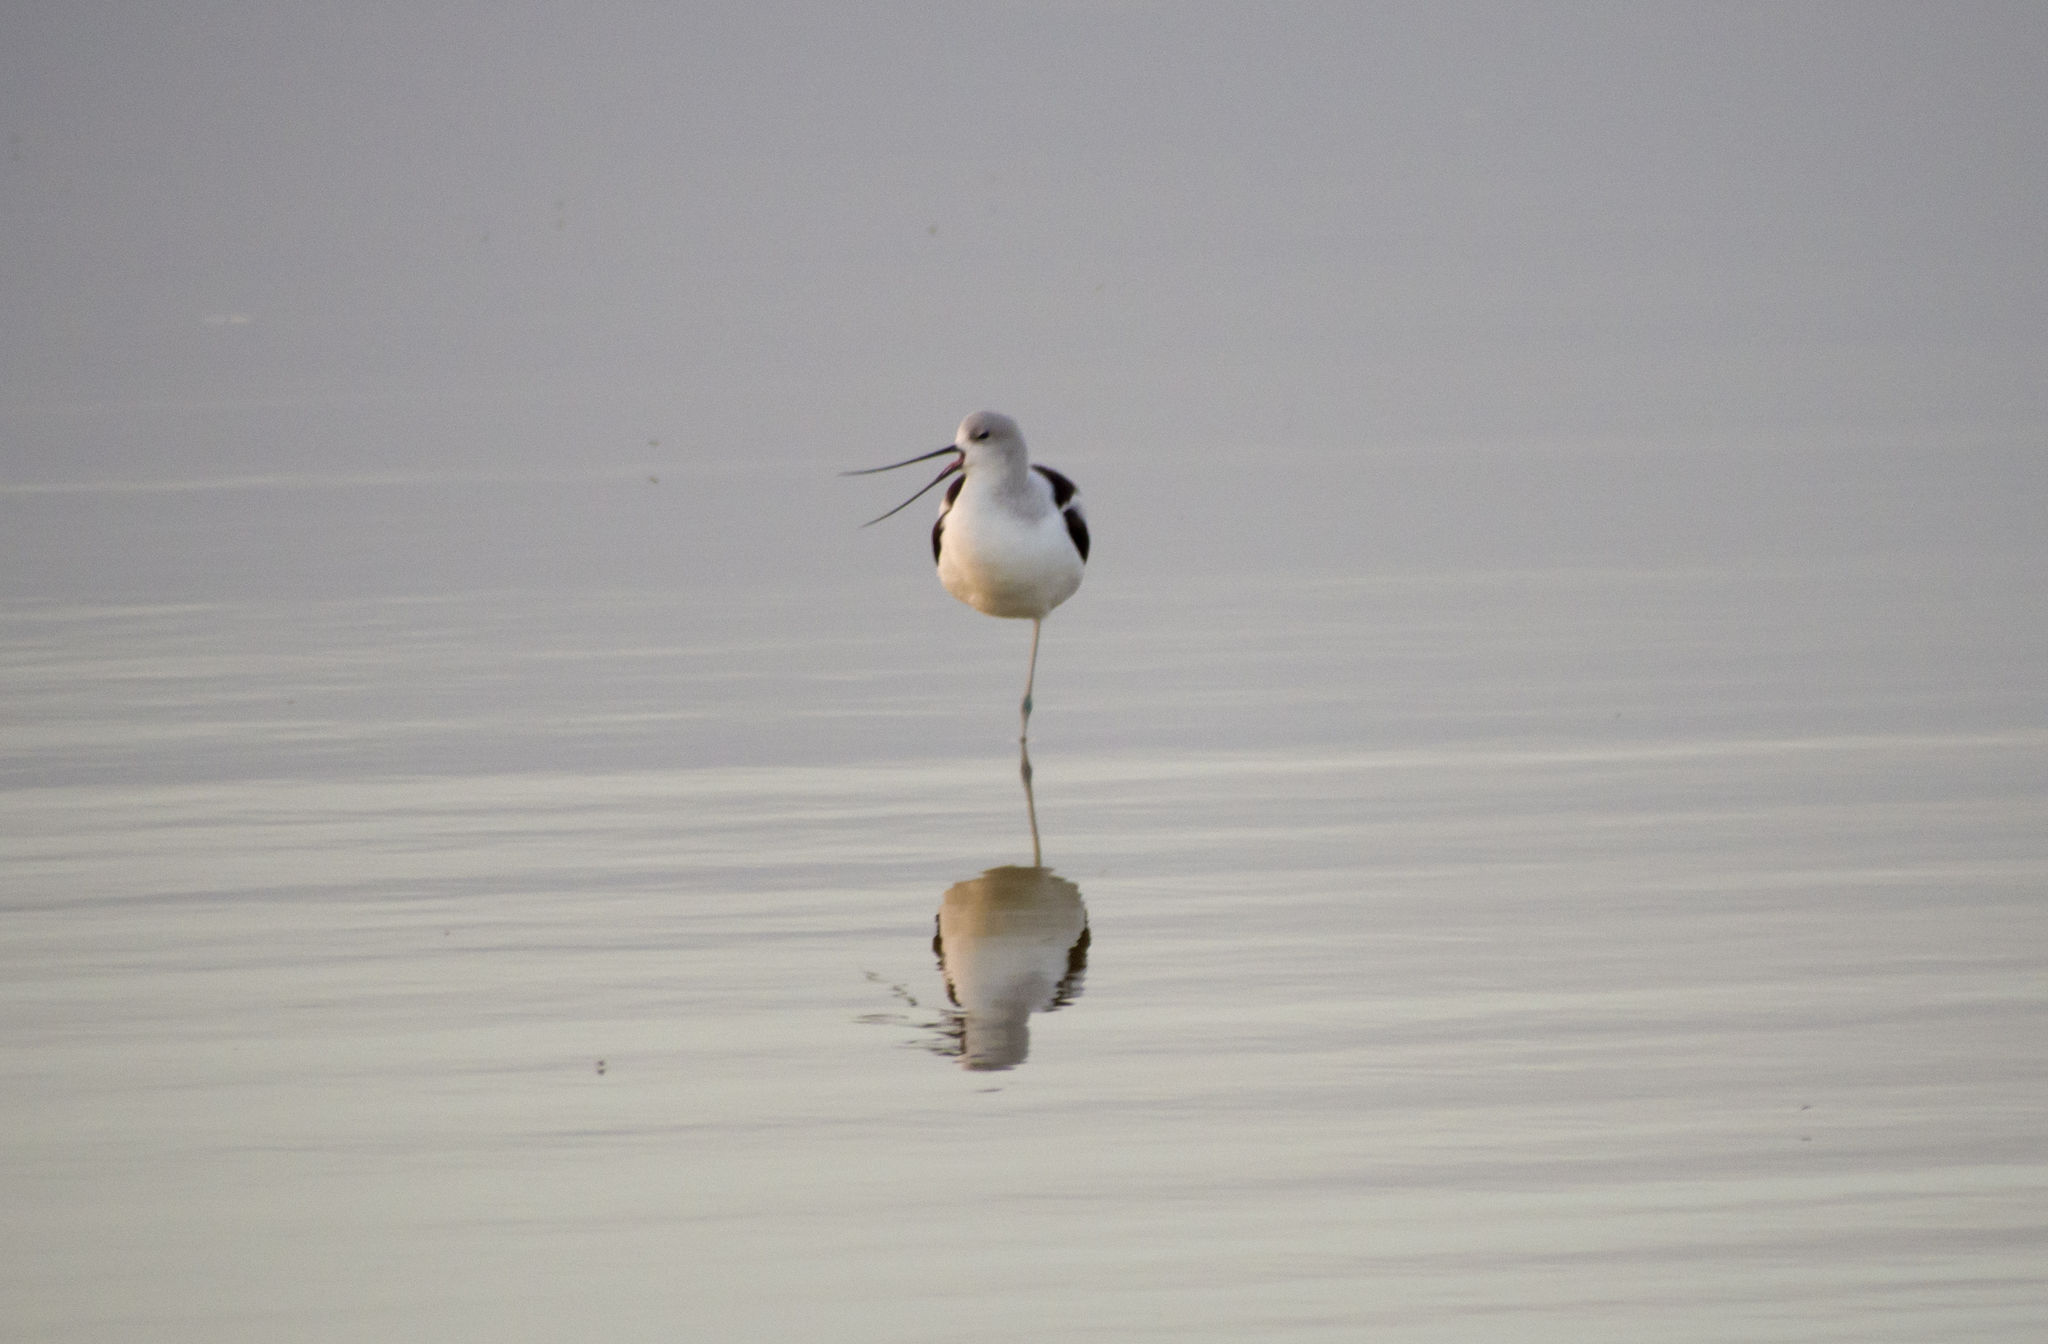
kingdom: Animalia
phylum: Chordata
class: Aves
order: Charadriiformes
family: Recurvirostridae
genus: Recurvirostra
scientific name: Recurvirostra americana
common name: American avocet
